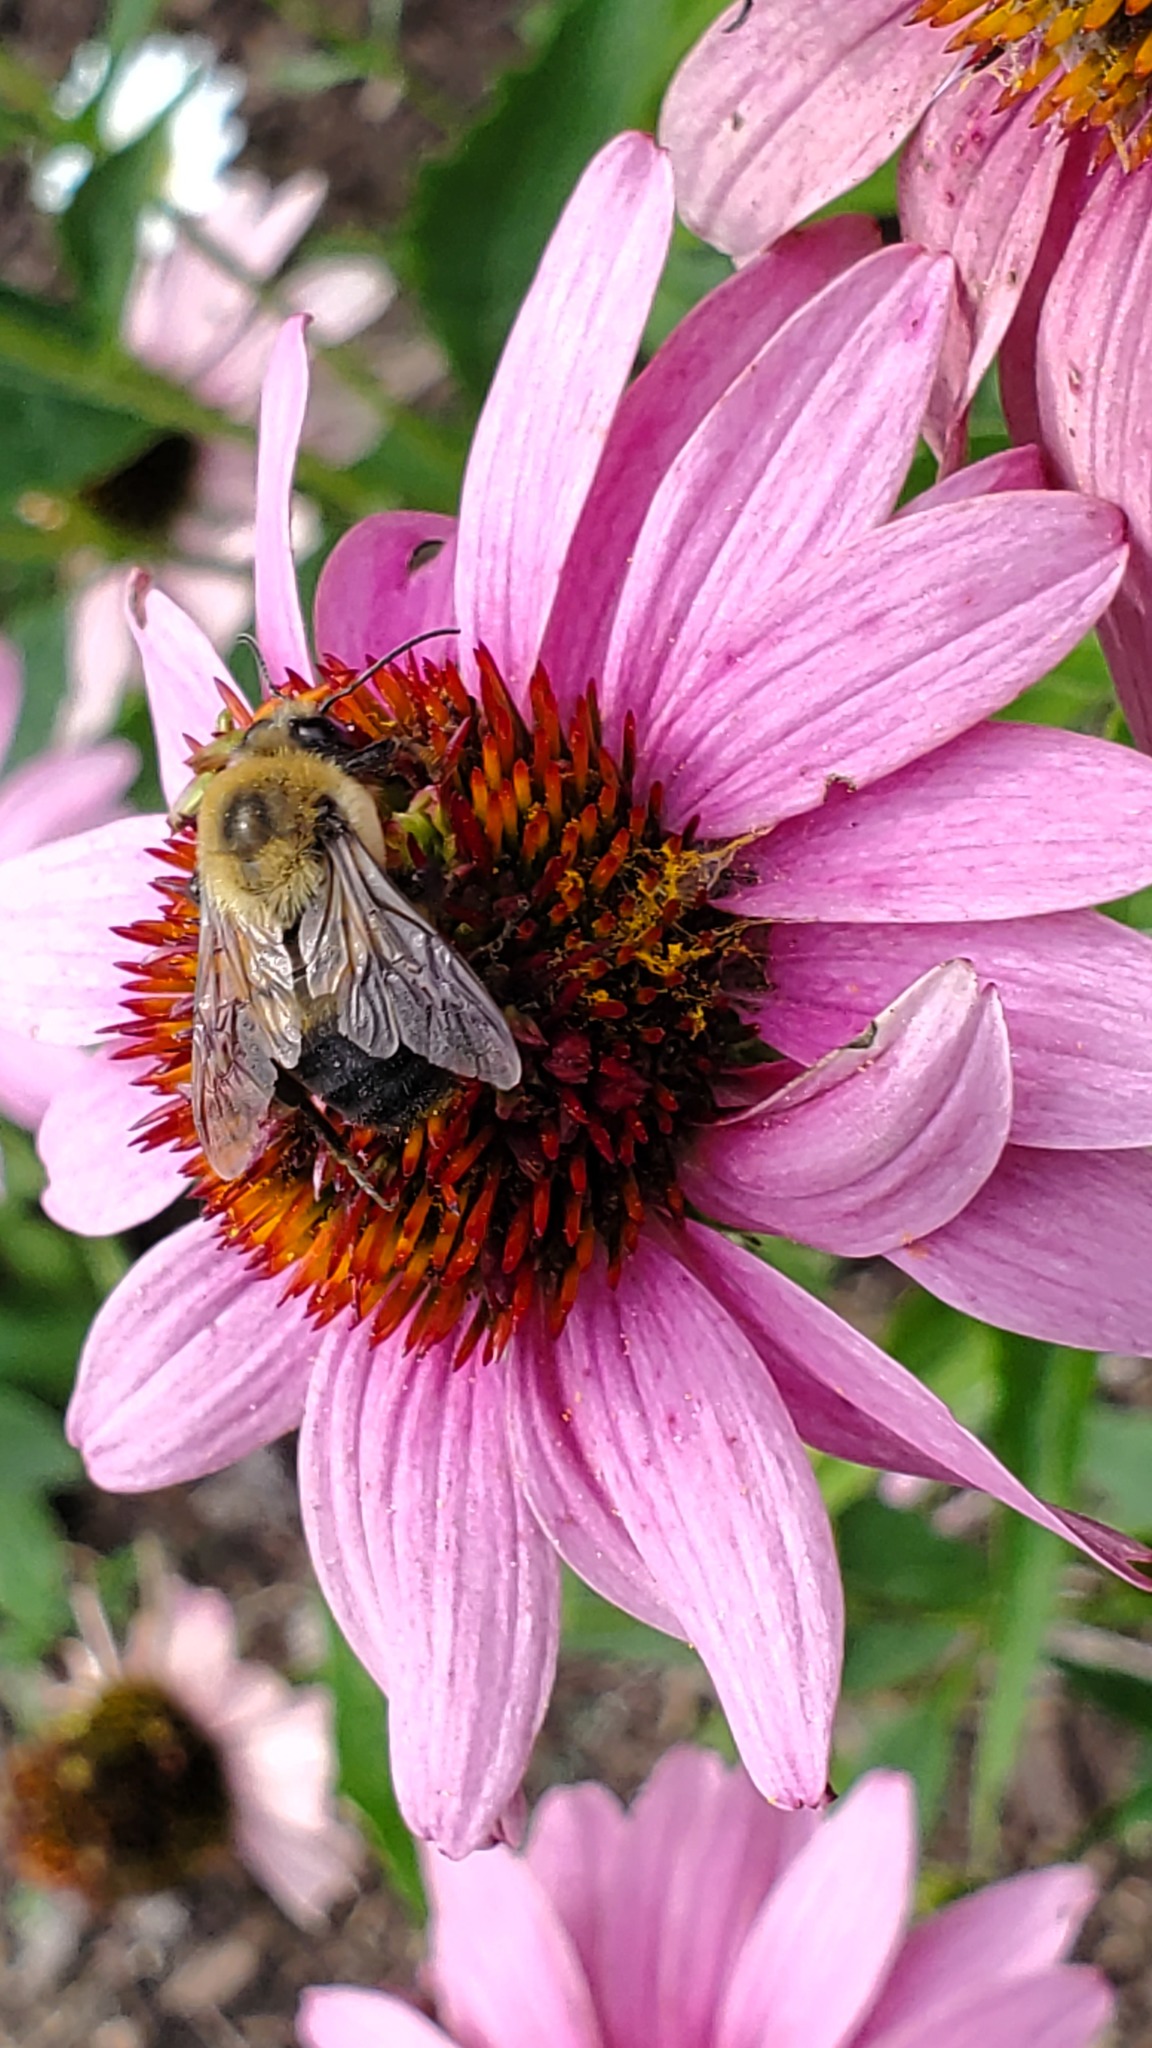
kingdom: Animalia
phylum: Arthropoda
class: Insecta
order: Hymenoptera
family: Apidae
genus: Bombus
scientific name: Bombus griseocollis
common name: Brown-belted bumble bee
